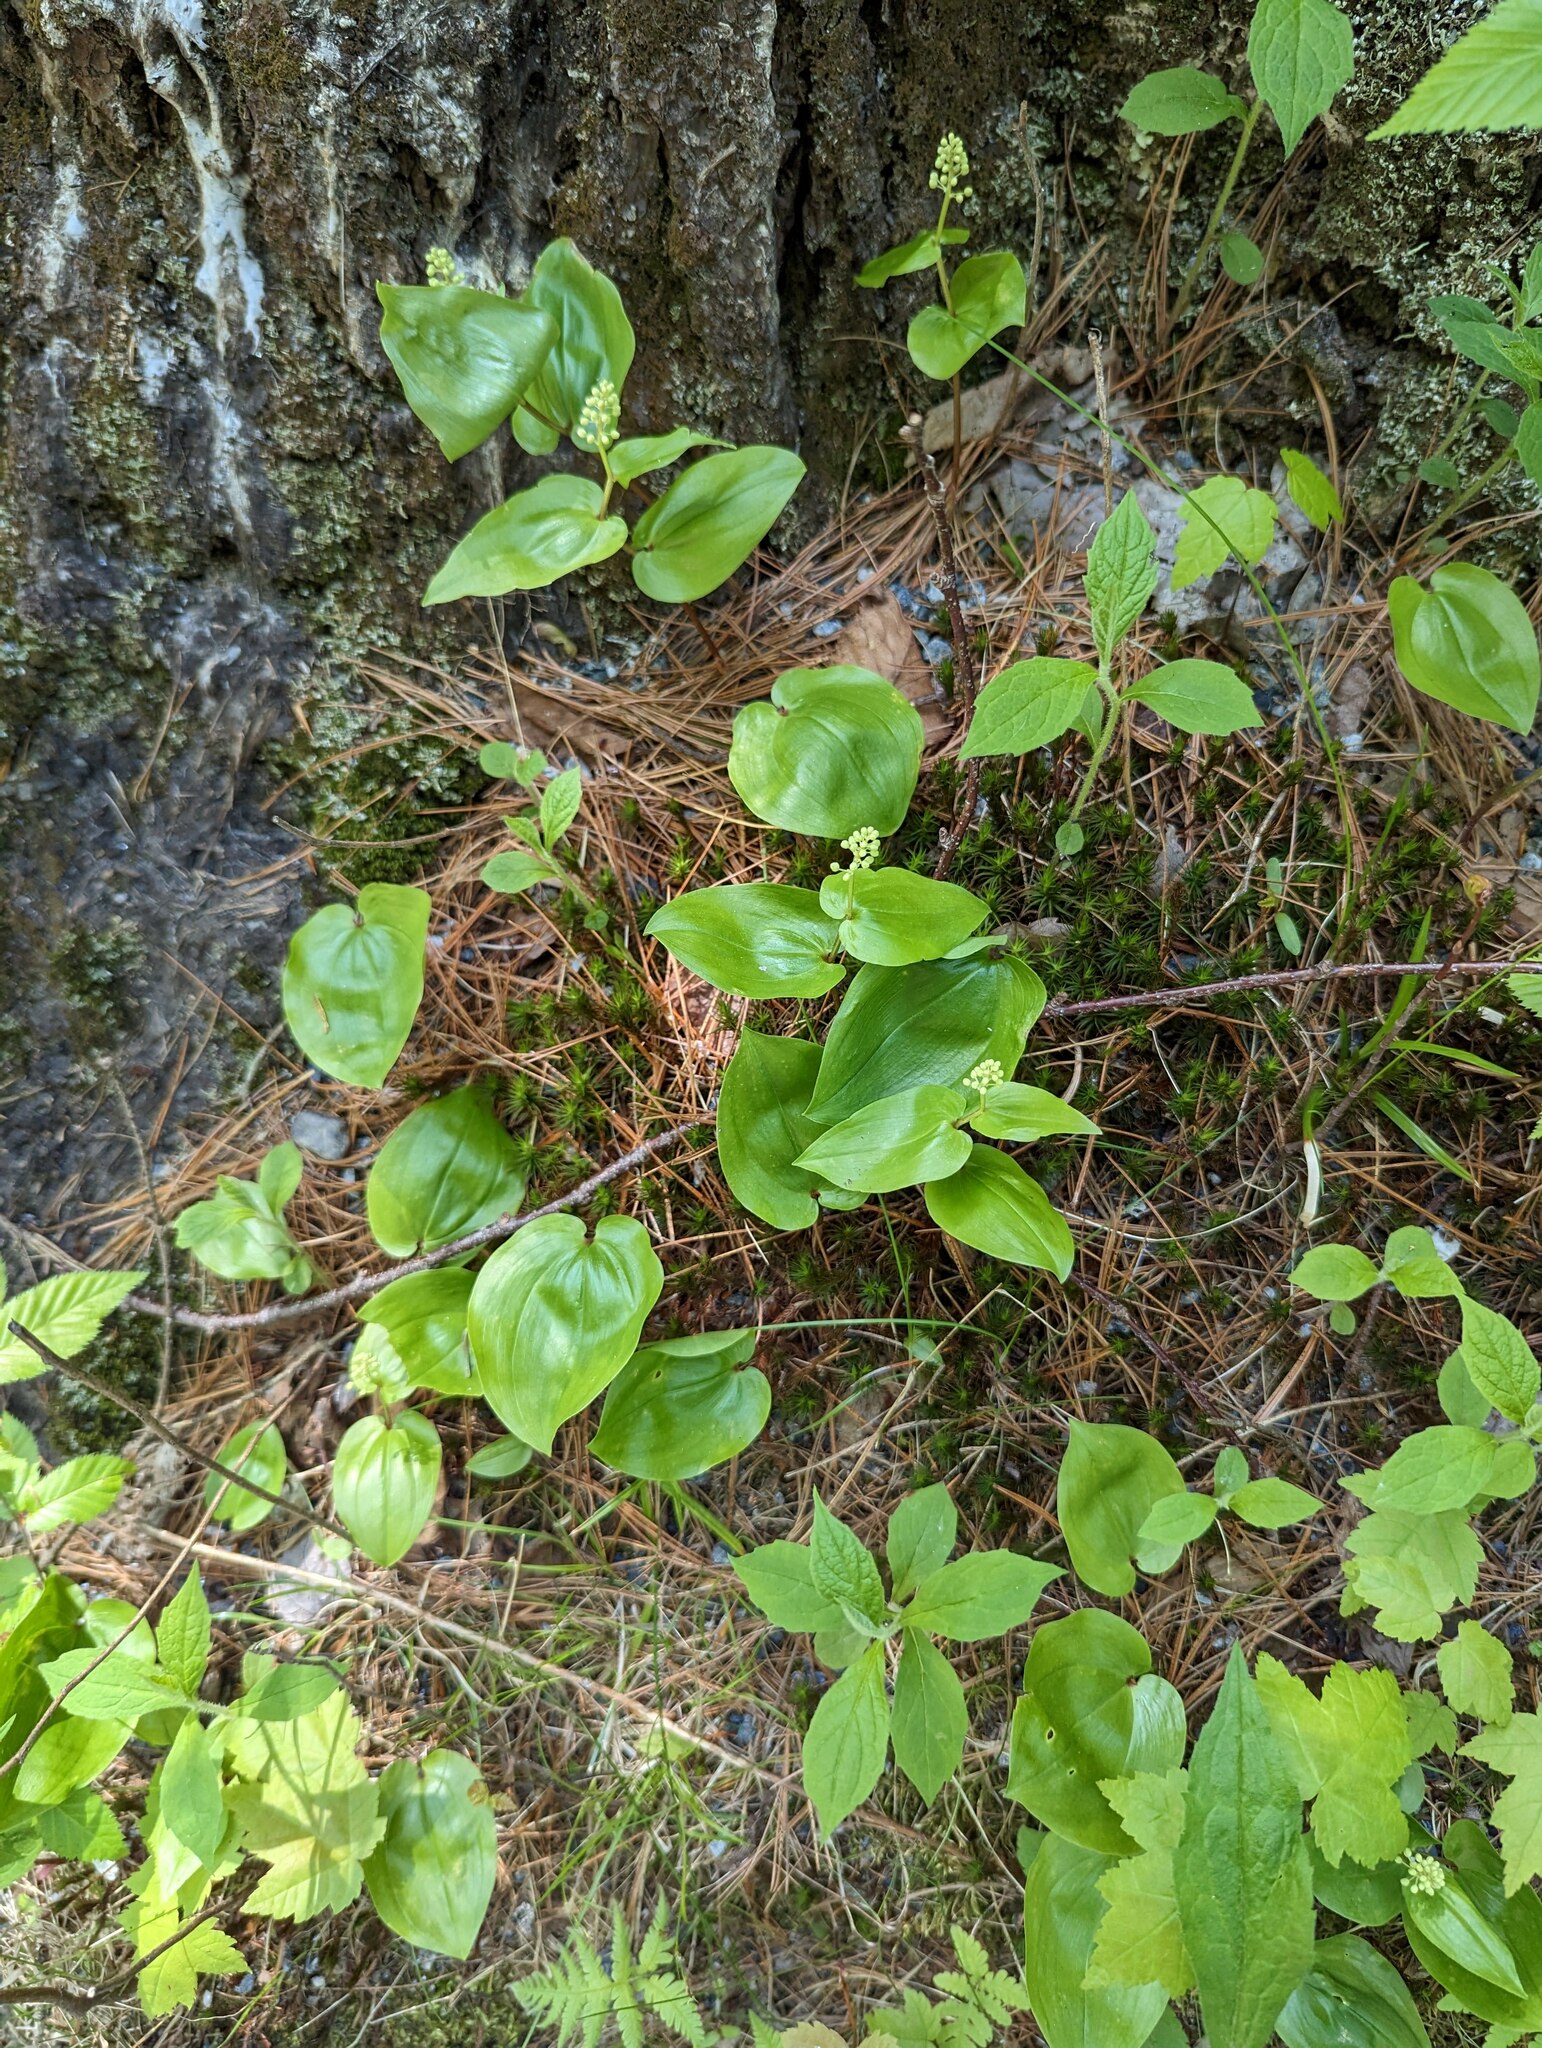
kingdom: Plantae
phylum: Tracheophyta
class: Liliopsida
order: Asparagales
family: Asparagaceae
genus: Maianthemum
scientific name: Maianthemum canadense
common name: False lily-of-the-valley
